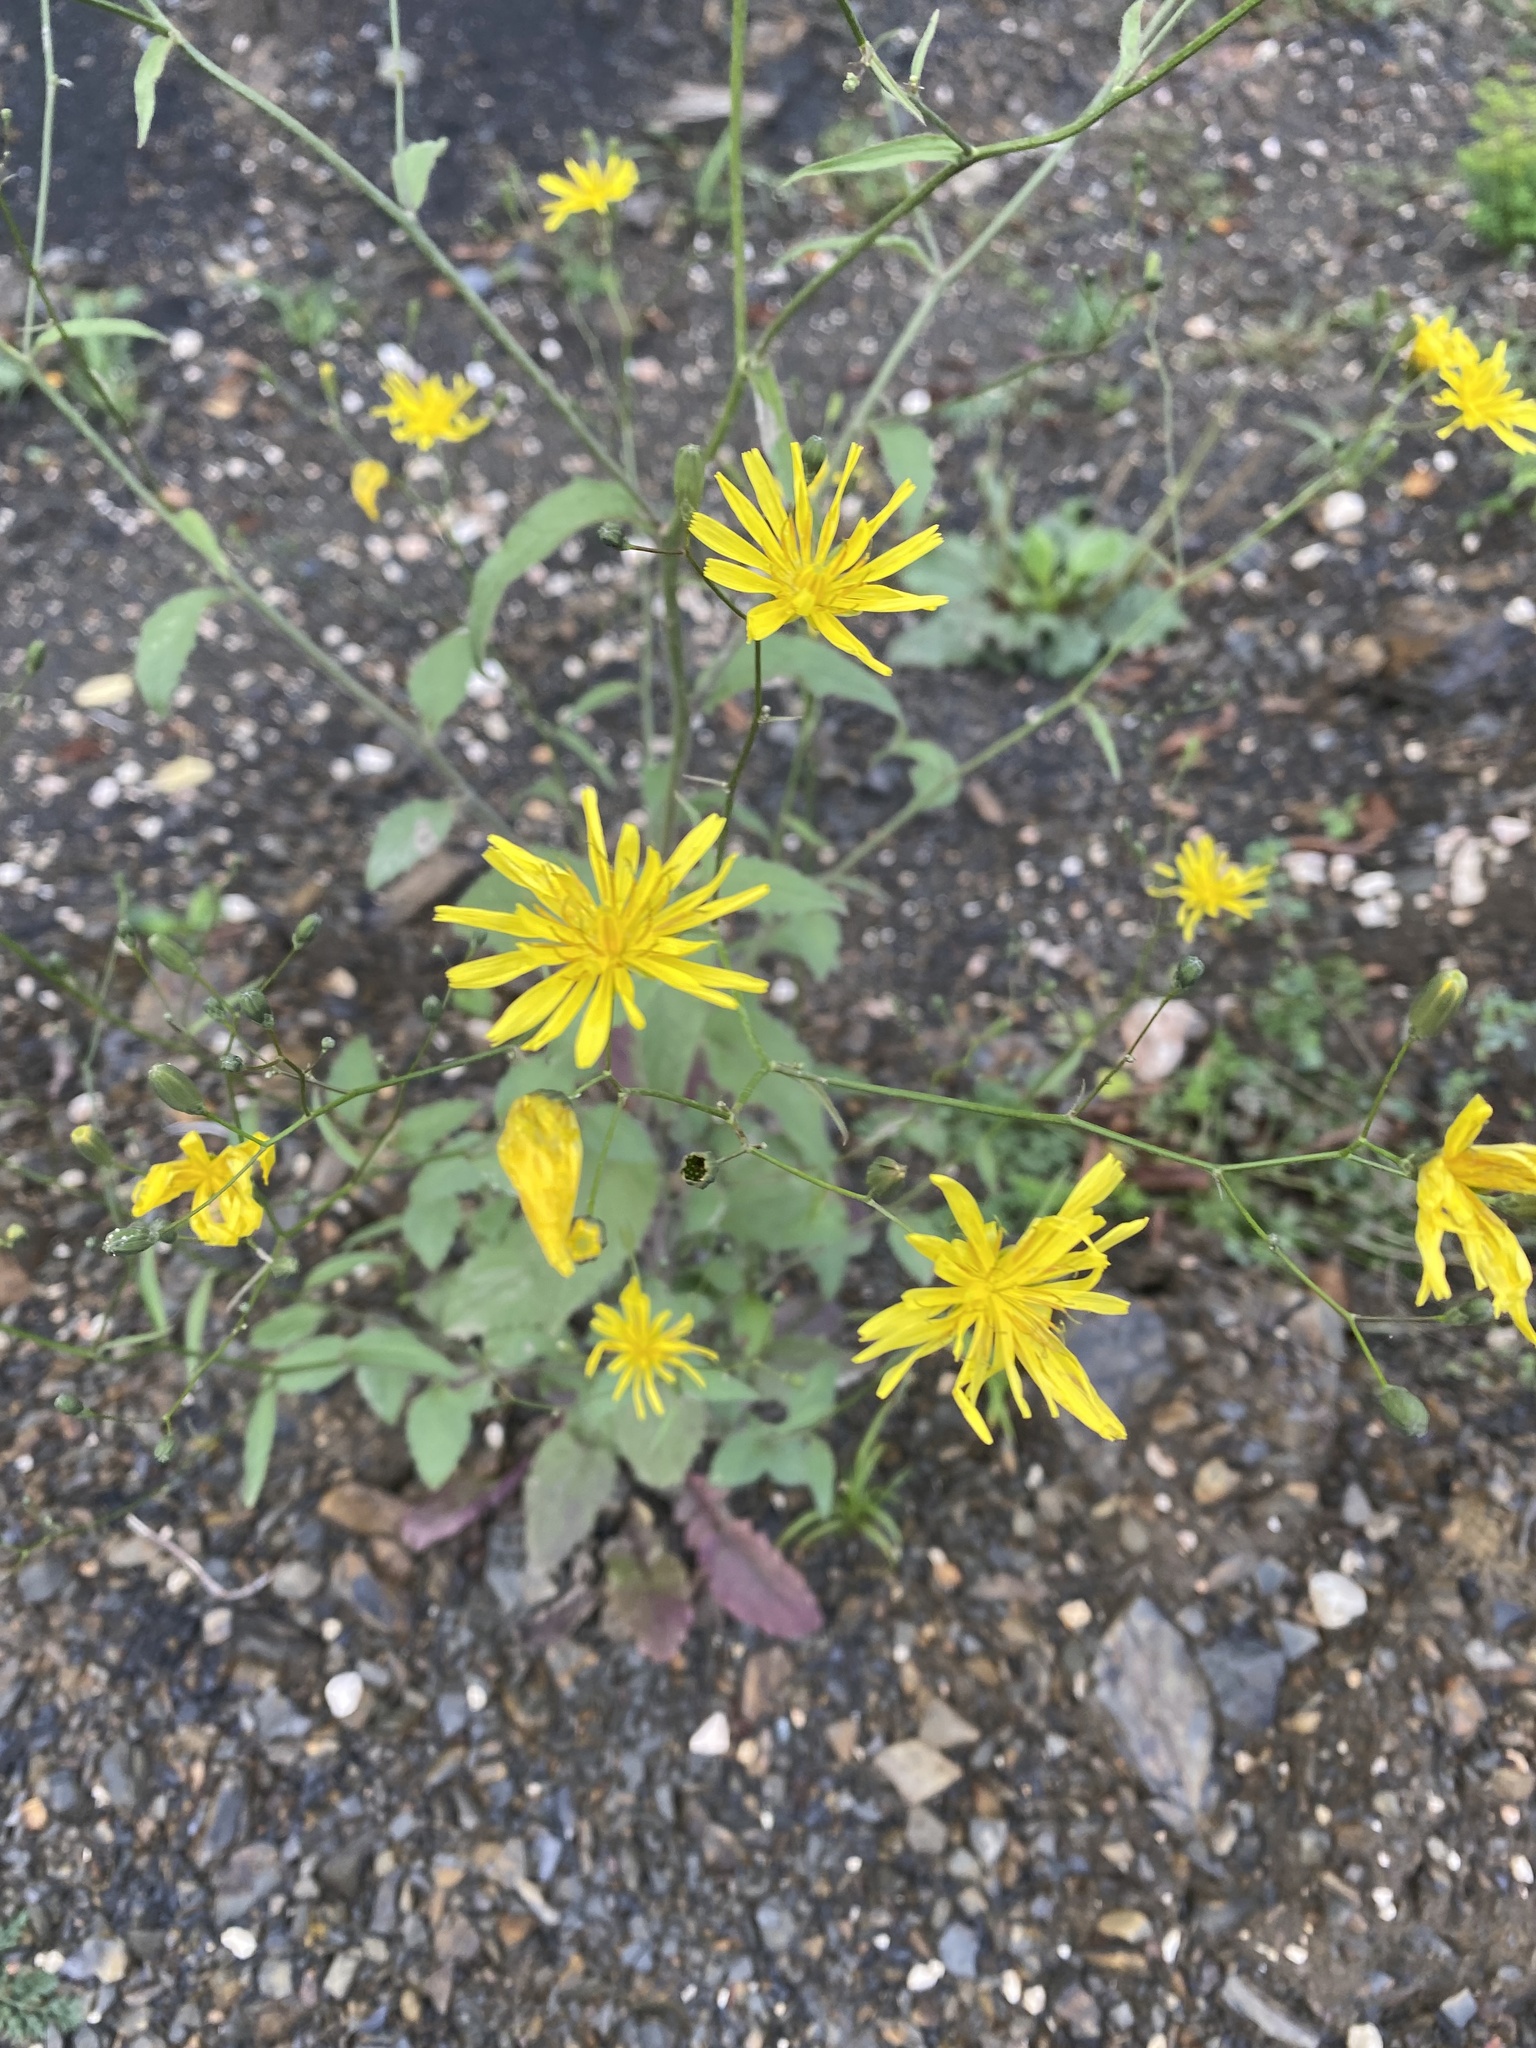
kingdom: Plantae
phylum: Tracheophyta
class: Magnoliopsida
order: Asterales
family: Asteraceae
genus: Lapsana
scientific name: Lapsana communis
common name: Nipplewort
